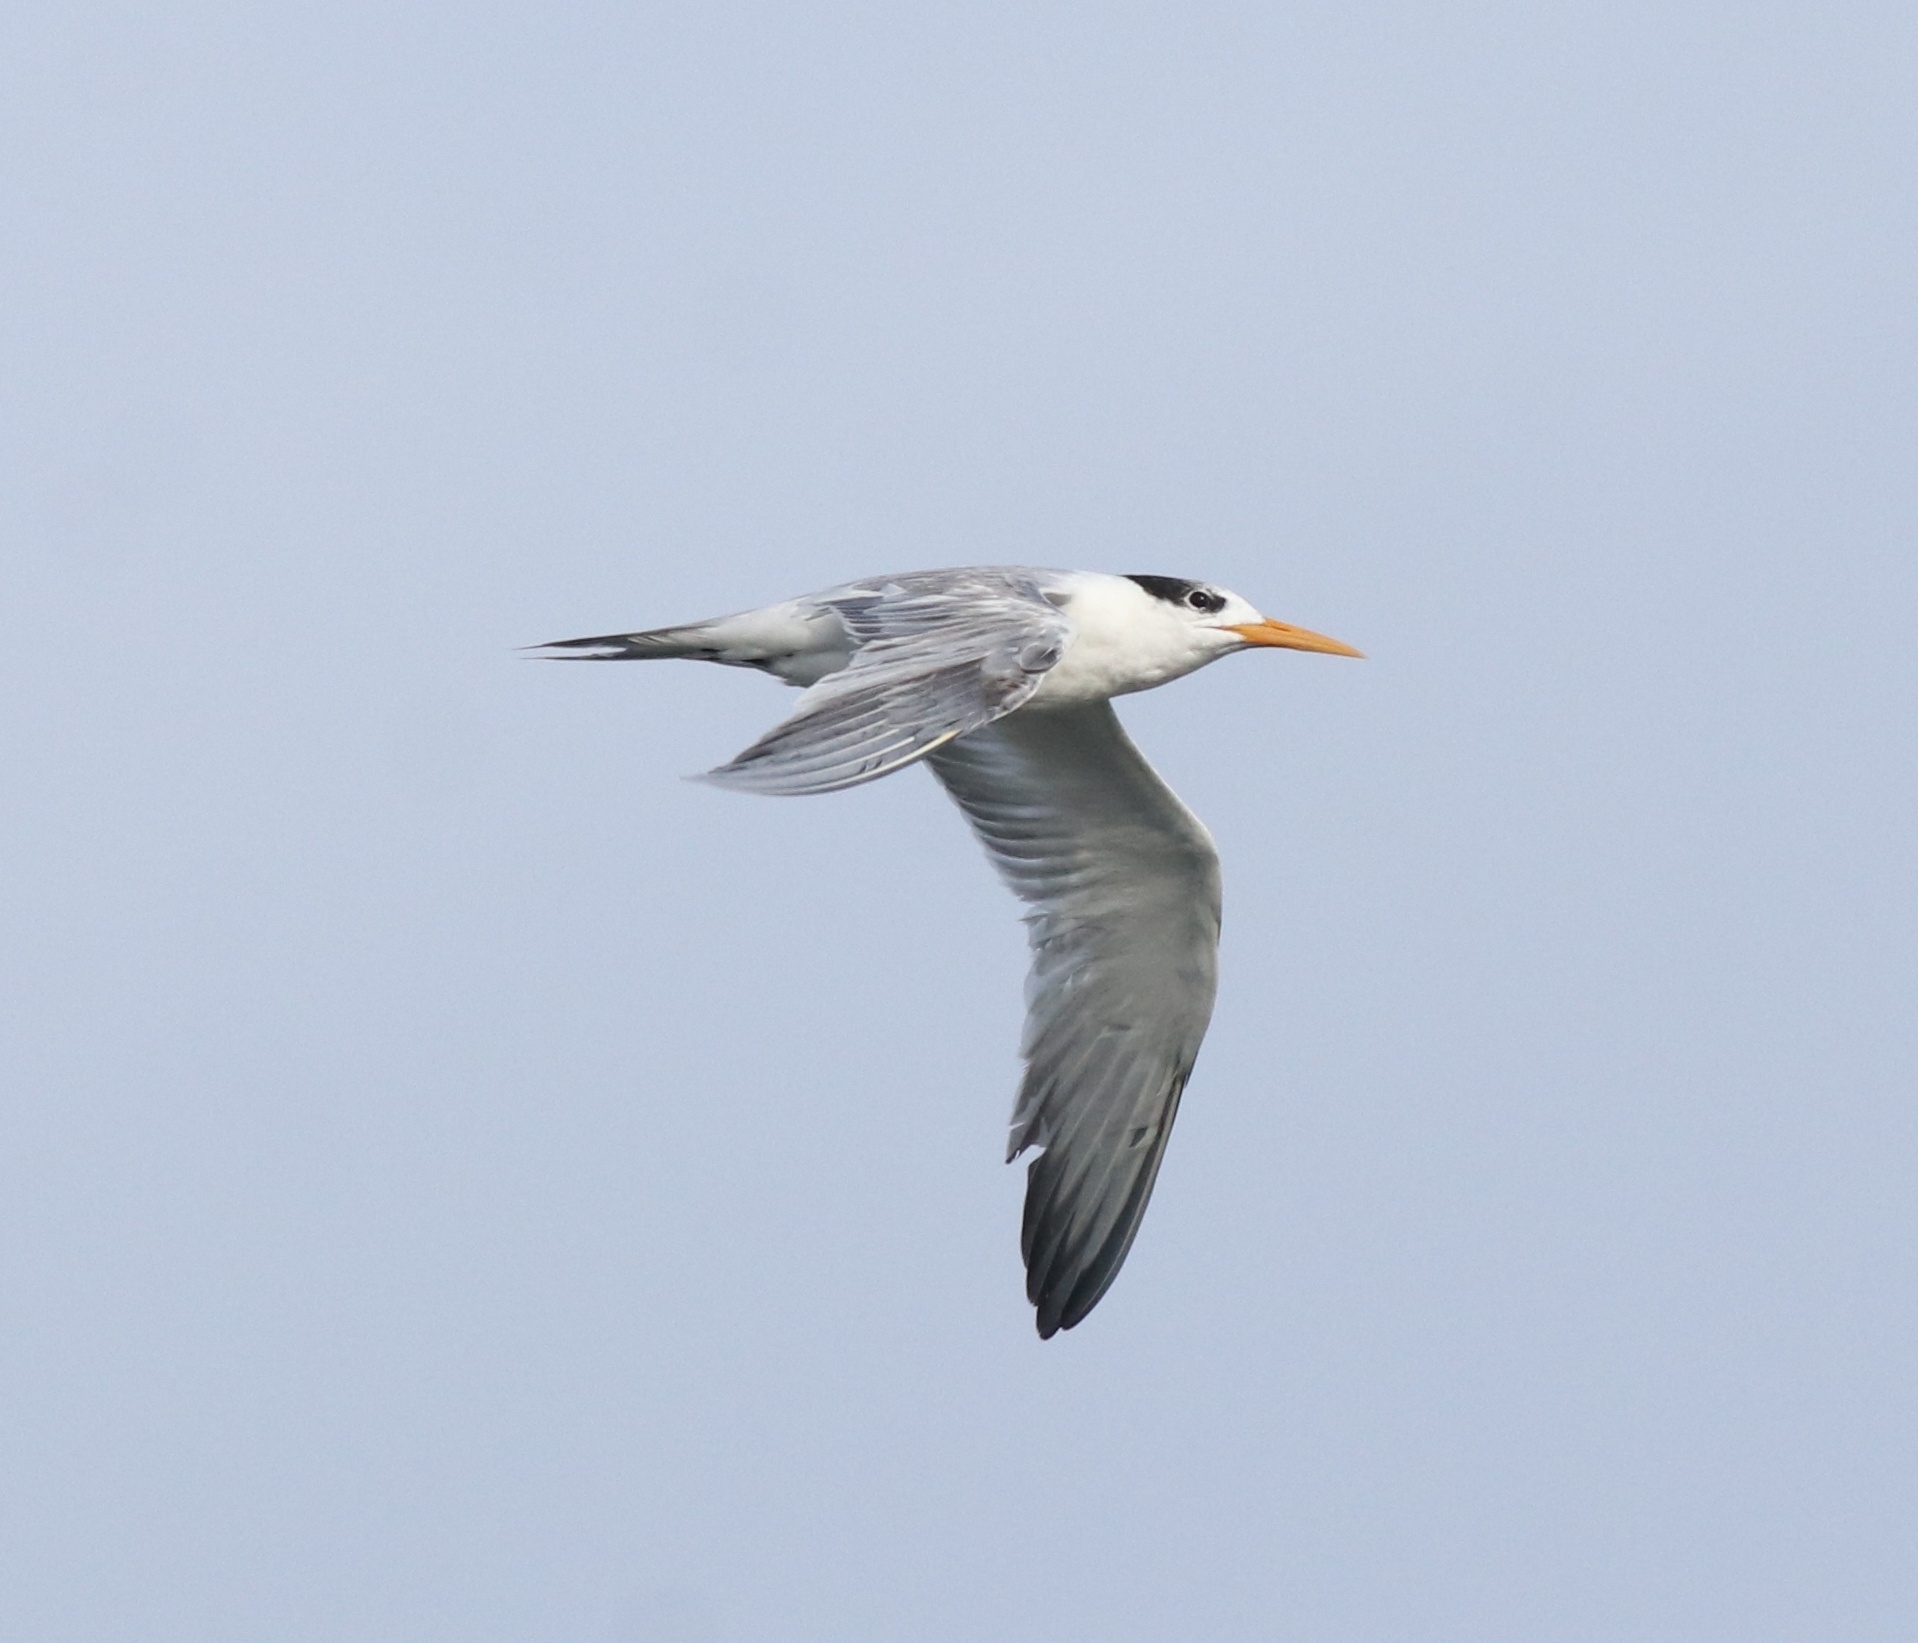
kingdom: Animalia
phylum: Chordata
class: Aves
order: Charadriiformes
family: Laridae
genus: Thalasseus
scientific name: Thalasseus bengalensis
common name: Lesser crested tern
